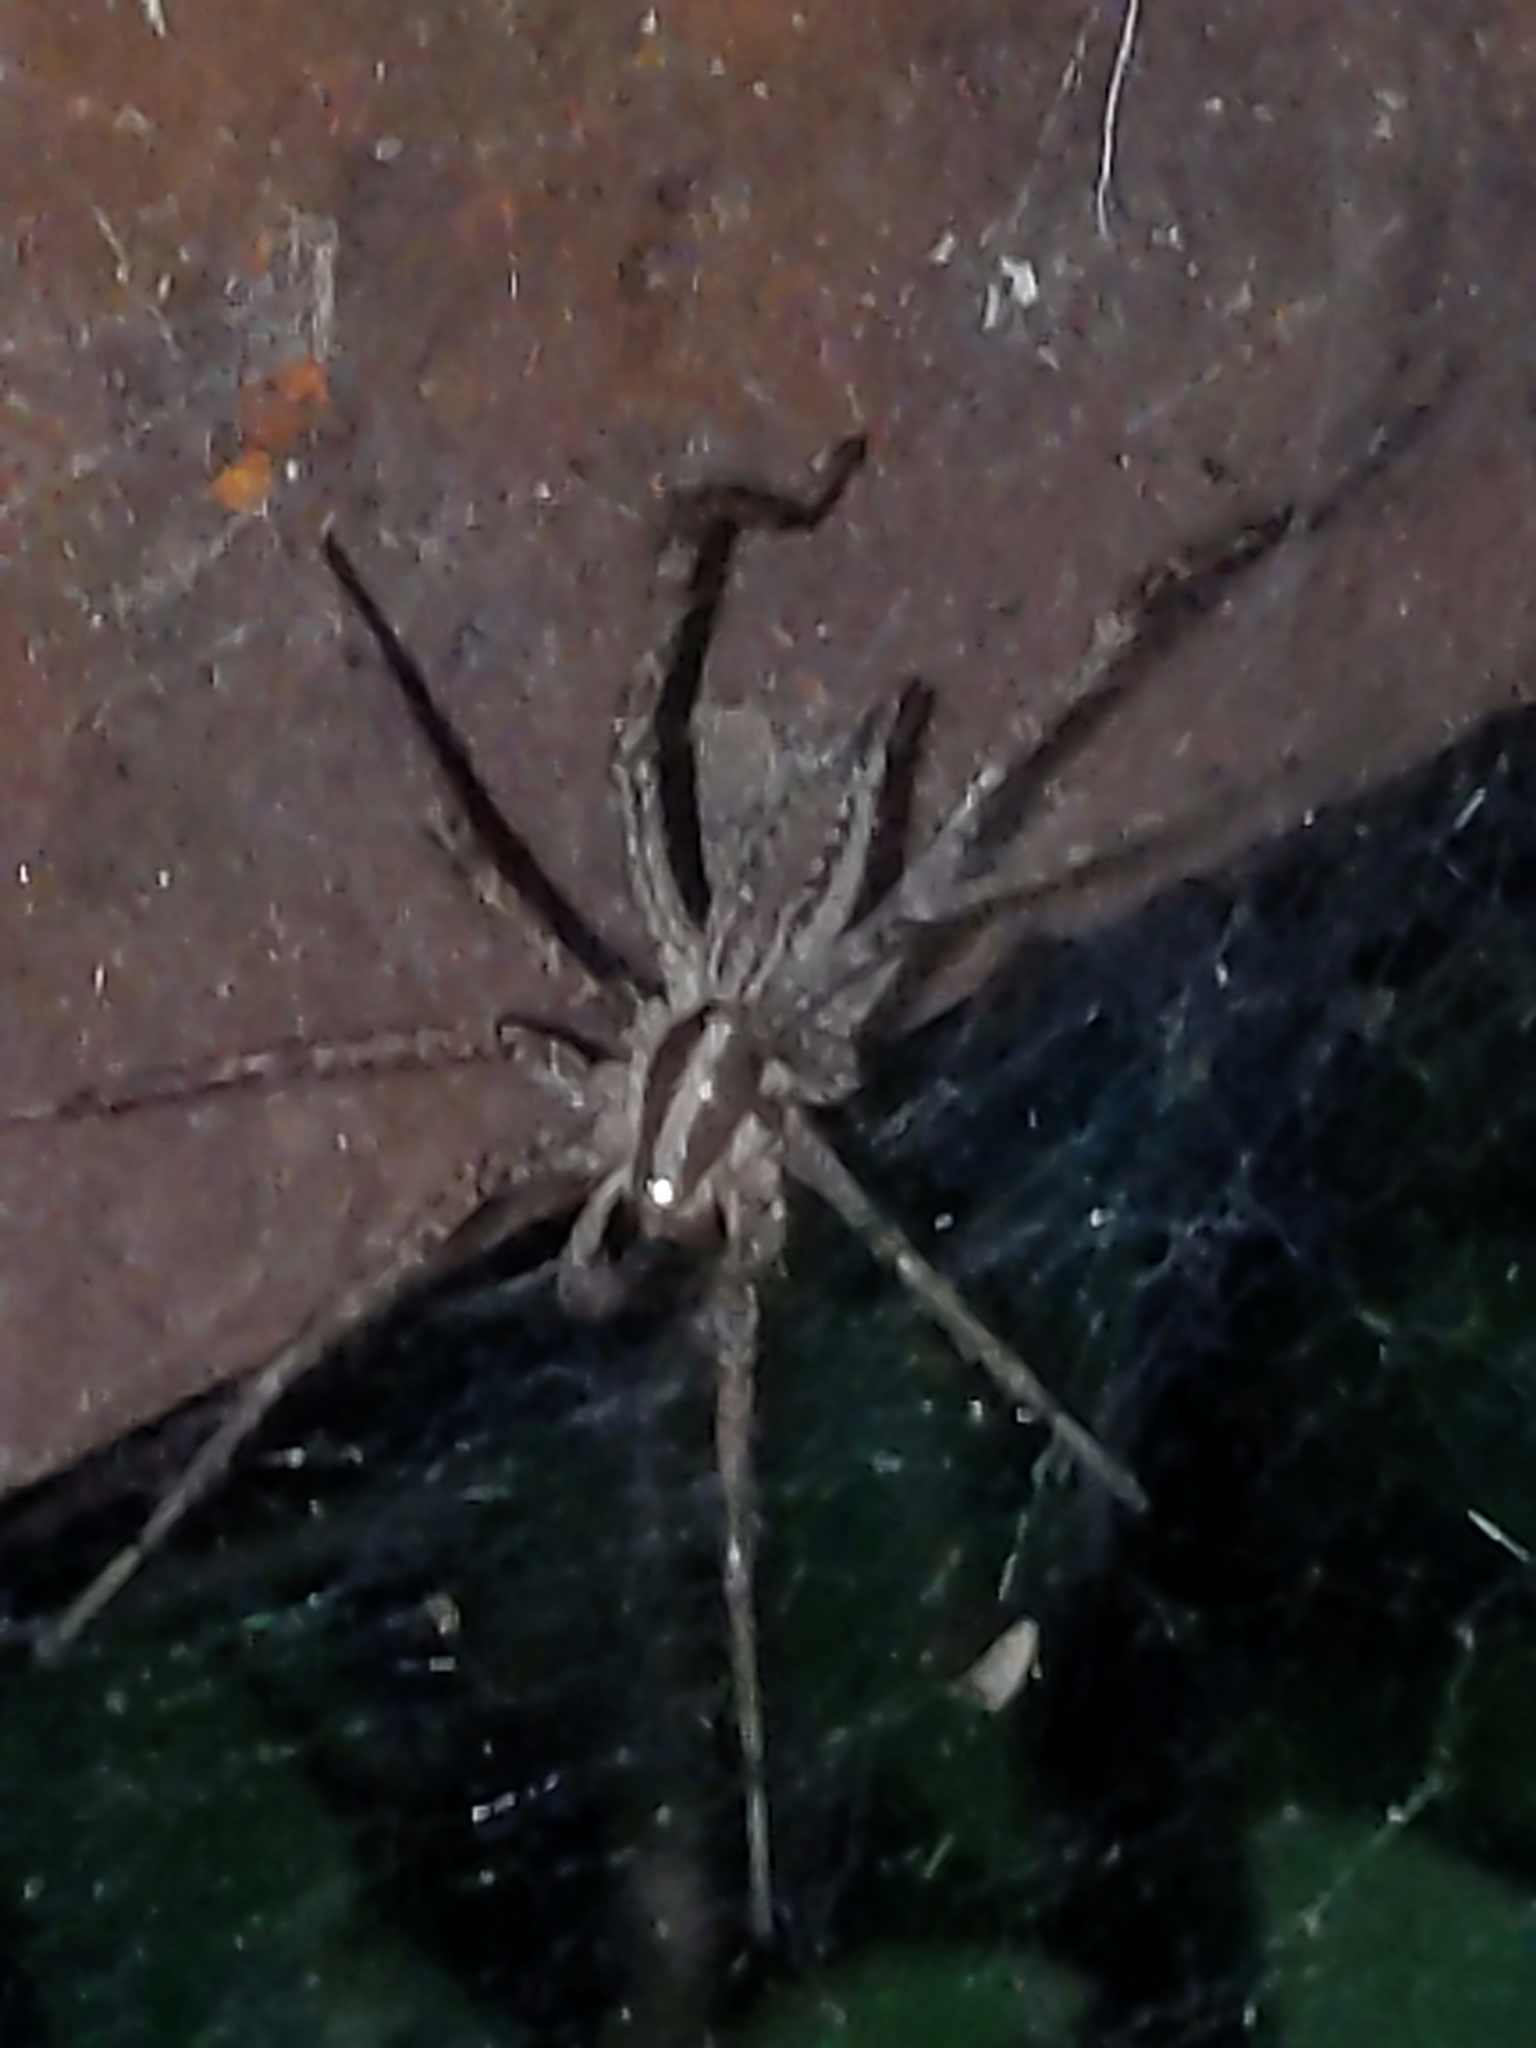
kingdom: Animalia
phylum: Arthropoda
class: Arachnida
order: Araneae
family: Agelenidae
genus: Agelenopsis
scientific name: Agelenopsis
